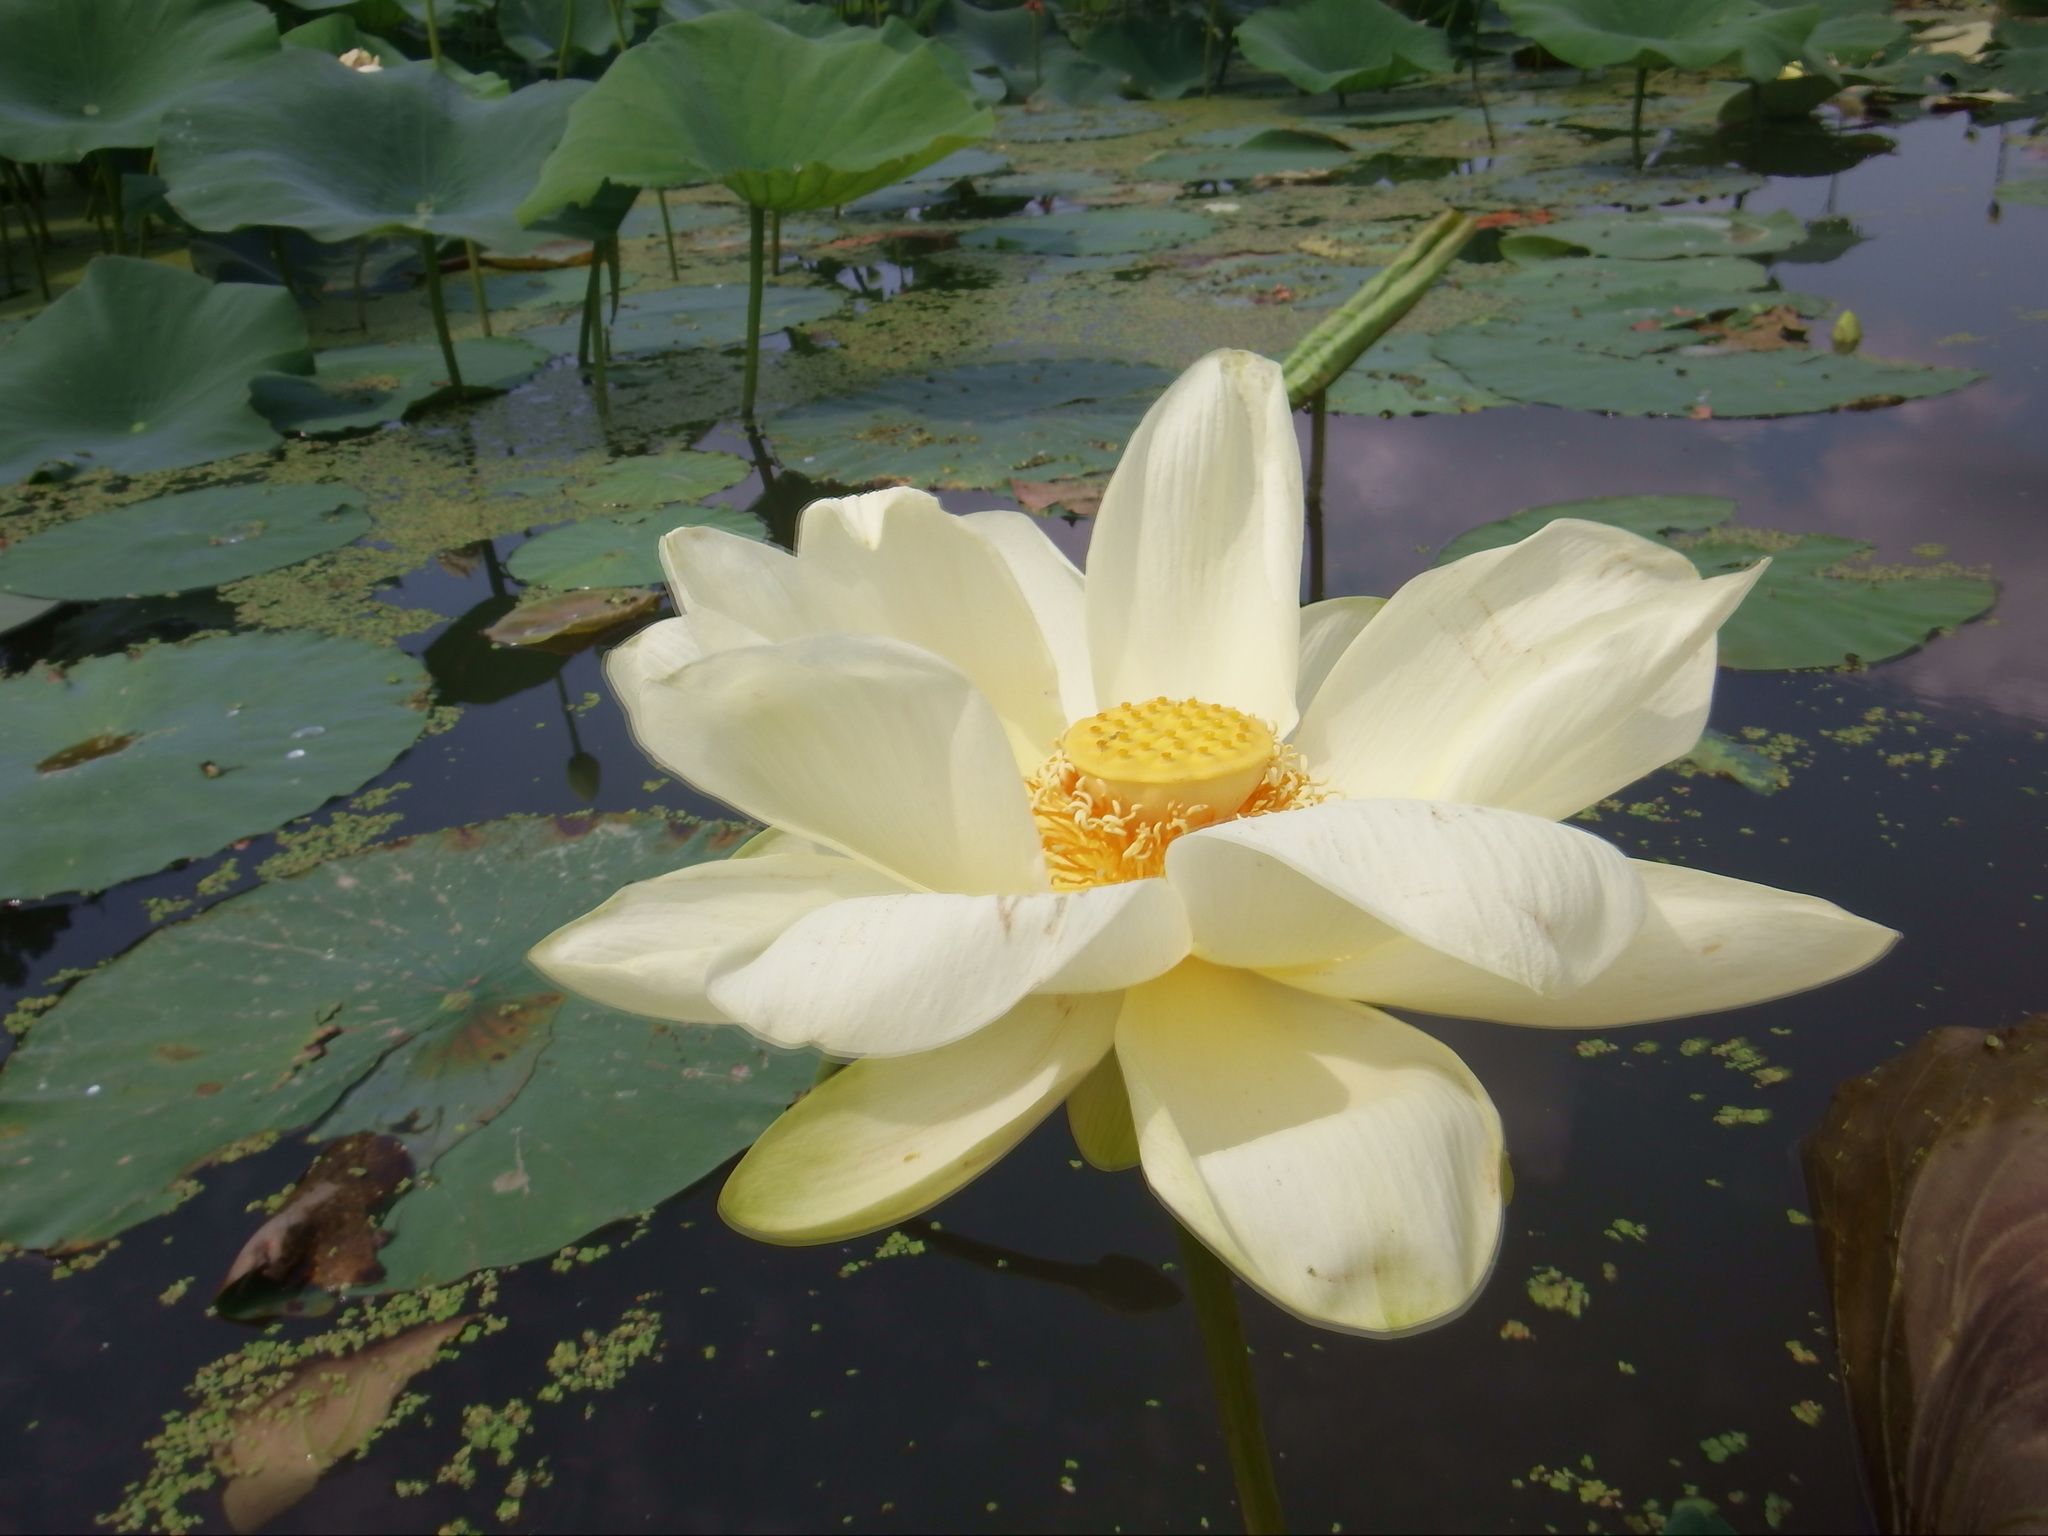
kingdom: Plantae
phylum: Tracheophyta
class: Magnoliopsida
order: Proteales
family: Nelumbonaceae
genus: Nelumbo
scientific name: Nelumbo lutea
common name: American lotus
